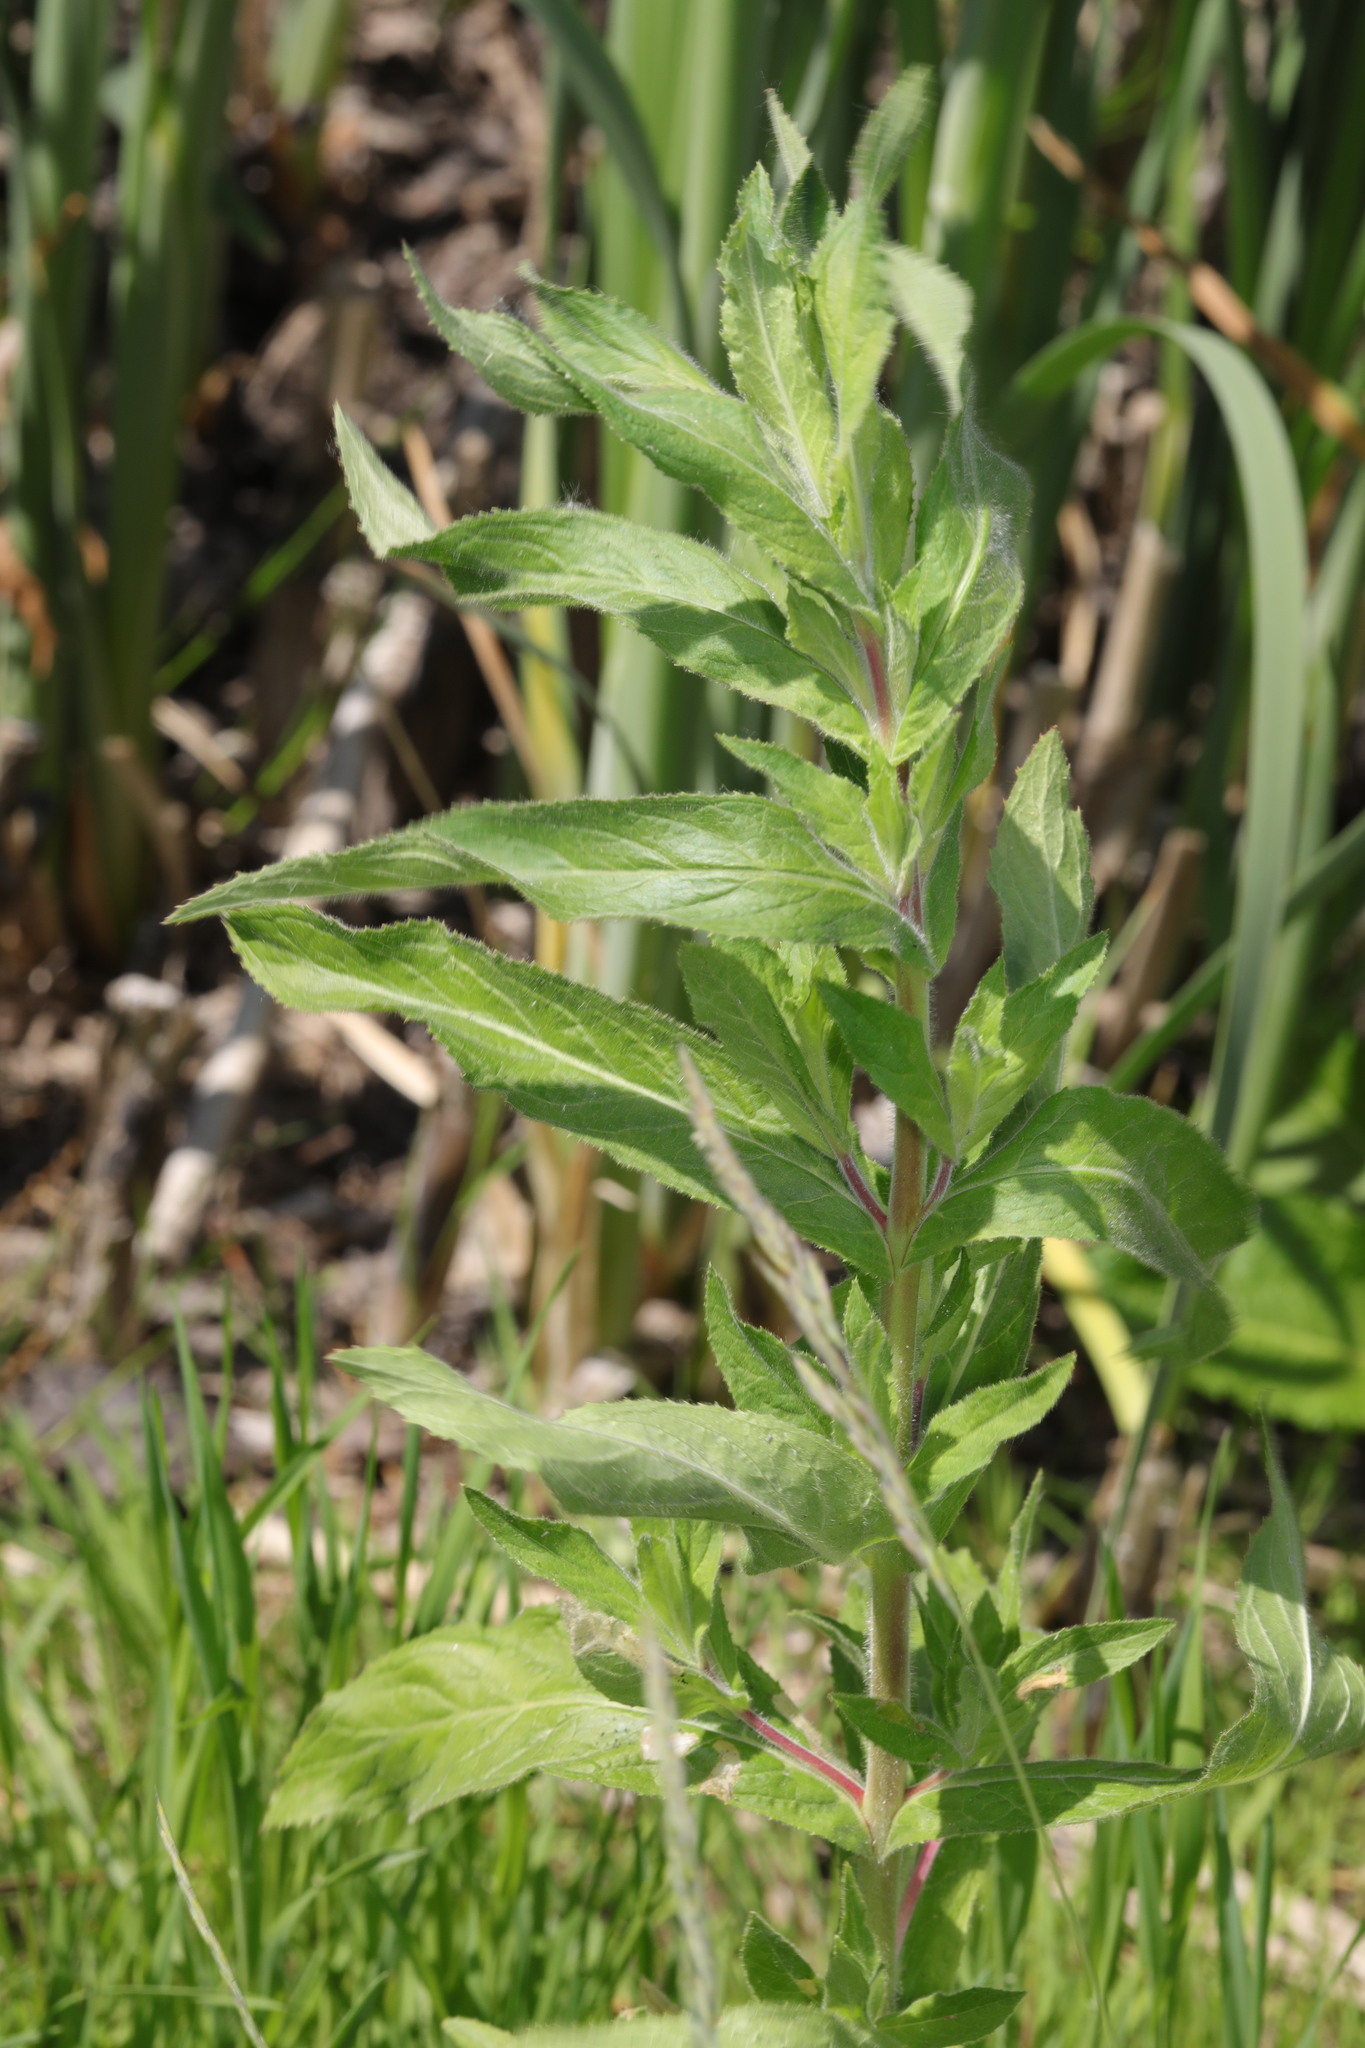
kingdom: Plantae
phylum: Tracheophyta
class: Magnoliopsida
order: Myrtales
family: Onagraceae
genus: Epilobium
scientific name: Epilobium hirsutum
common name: Great willowherb
